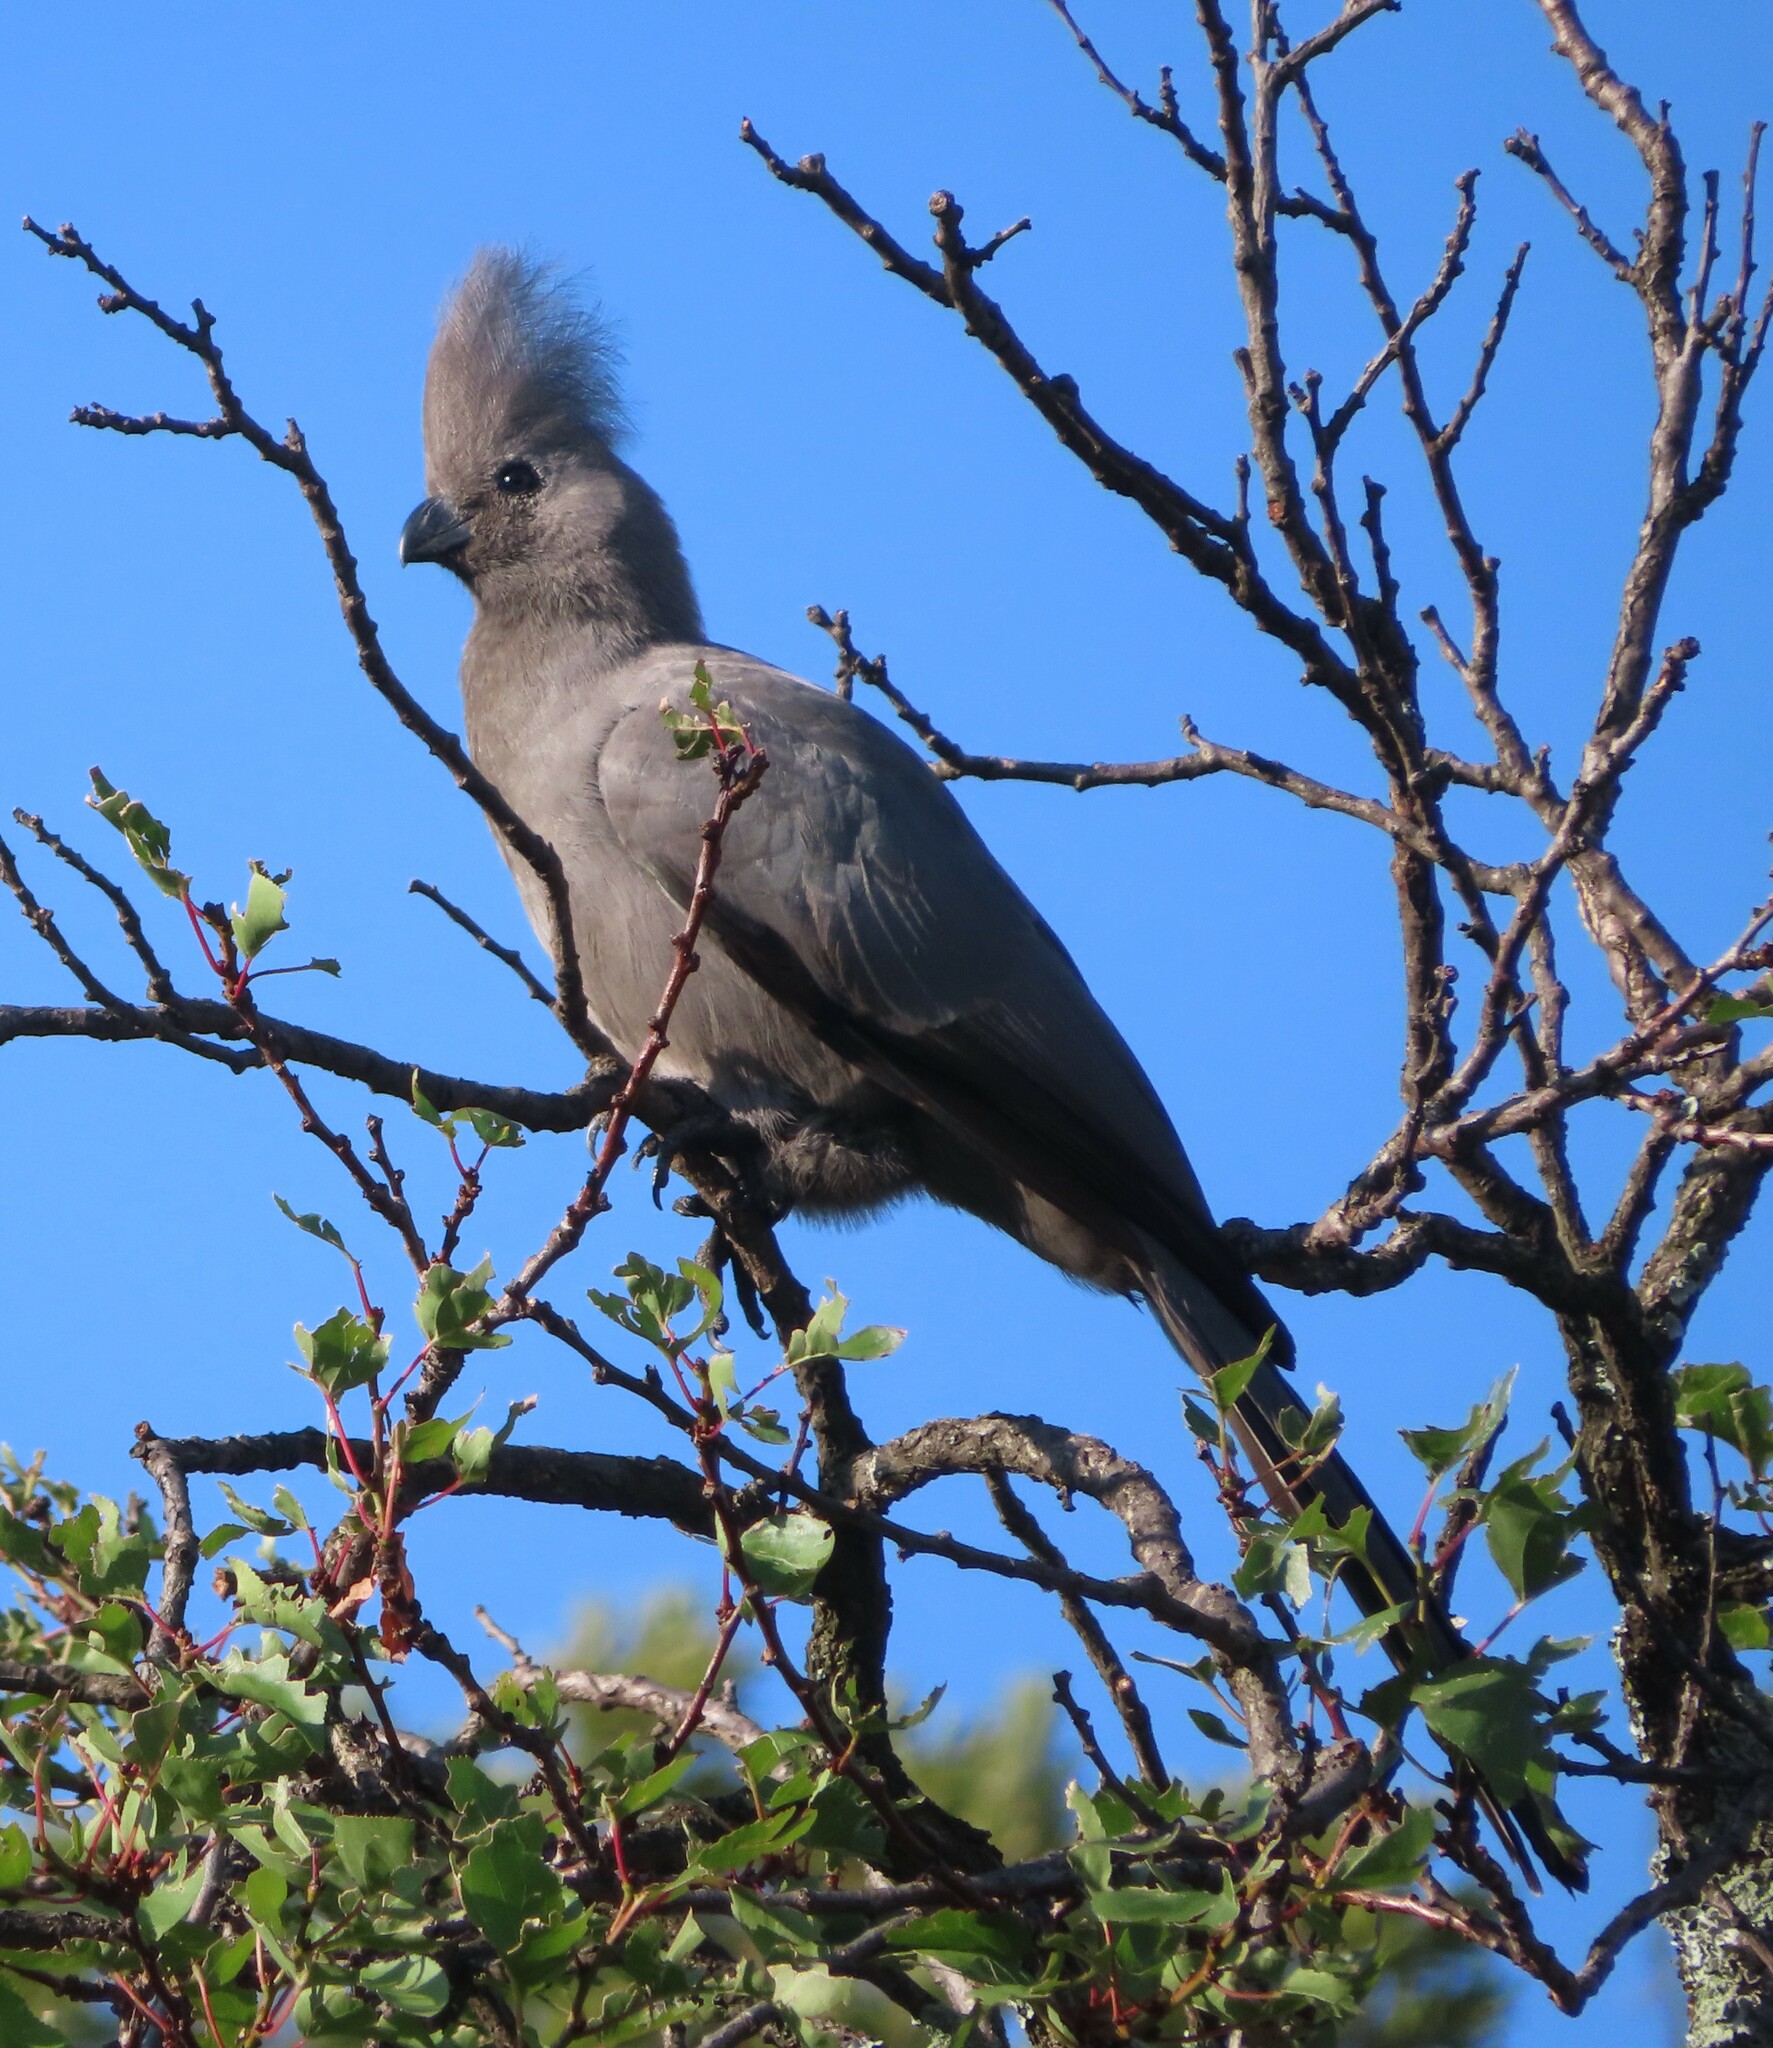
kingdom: Animalia
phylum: Chordata
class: Aves
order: Musophagiformes
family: Musophagidae
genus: Corythaixoides
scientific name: Corythaixoides concolor
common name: Grey go-away-bird
